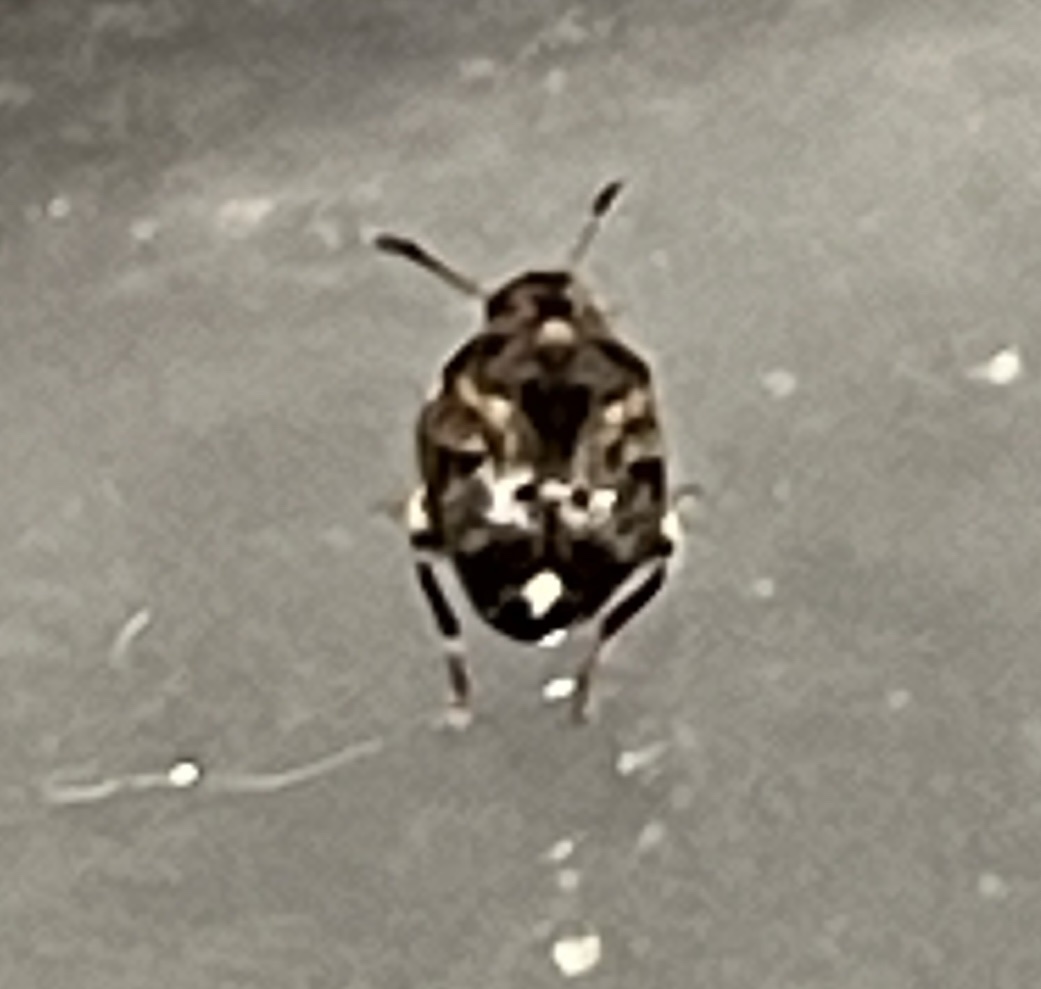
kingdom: Animalia
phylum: Arthropoda
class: Insecta
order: Coleoptera
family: Chrysomelidae
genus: Gibbobruchus
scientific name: Gibbobruchus mimus
